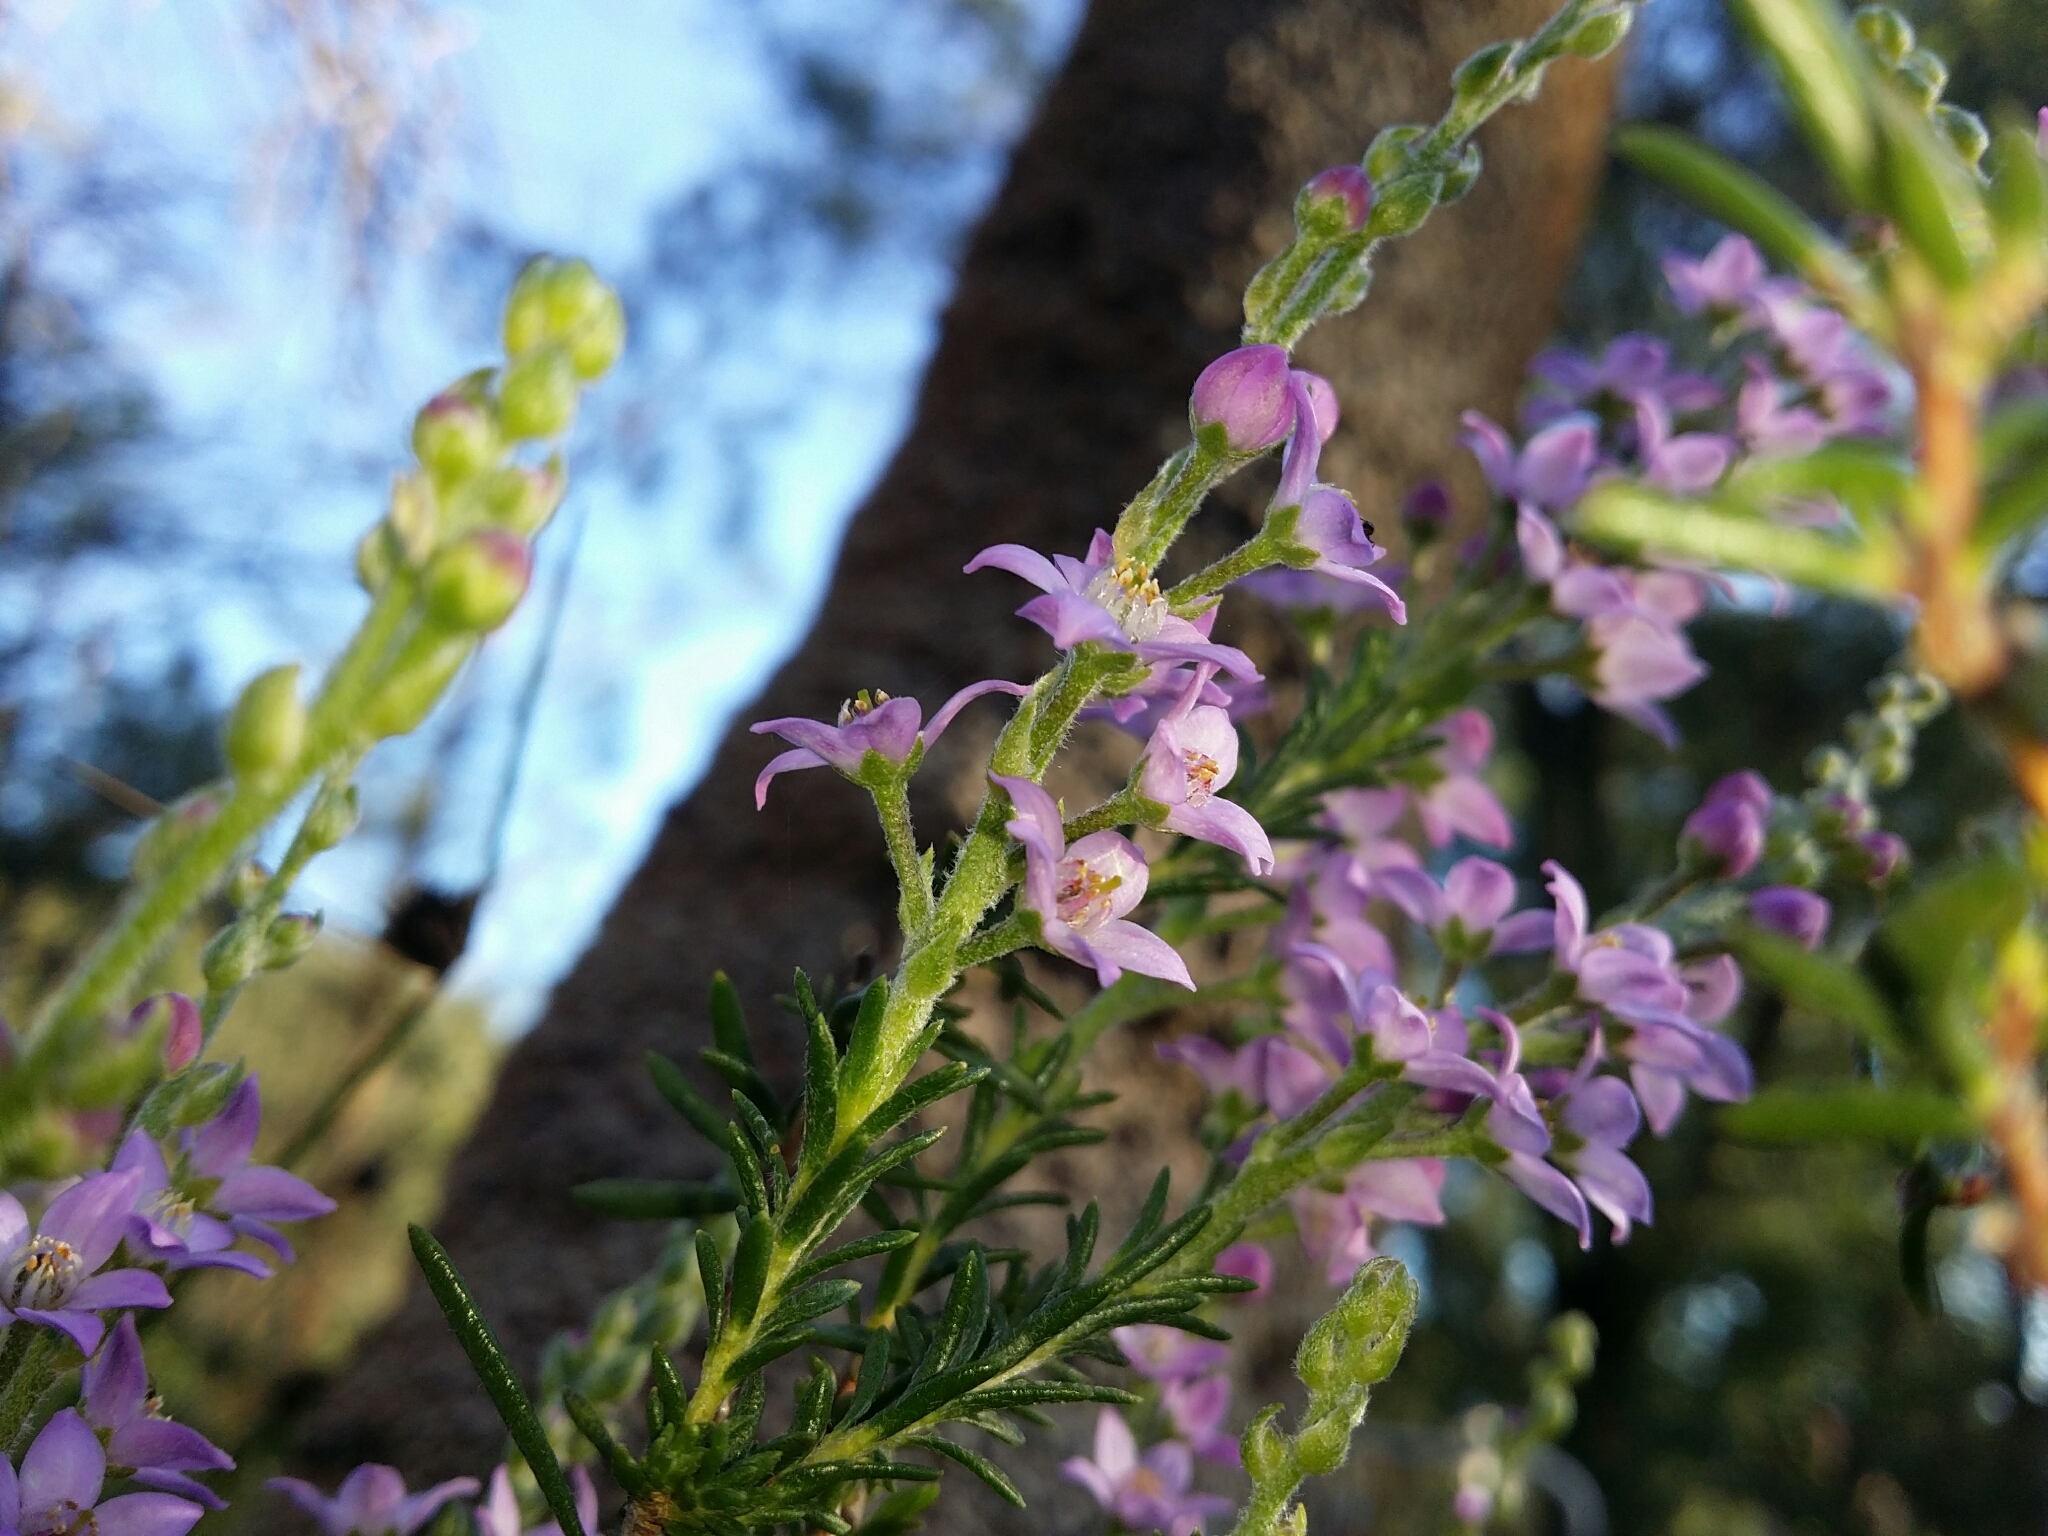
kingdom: Plantae
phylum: Tracheophyta
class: Magnoliopsida
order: Sapindales
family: Rutaceae
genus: Philotheca
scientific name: Philotheca spicata
